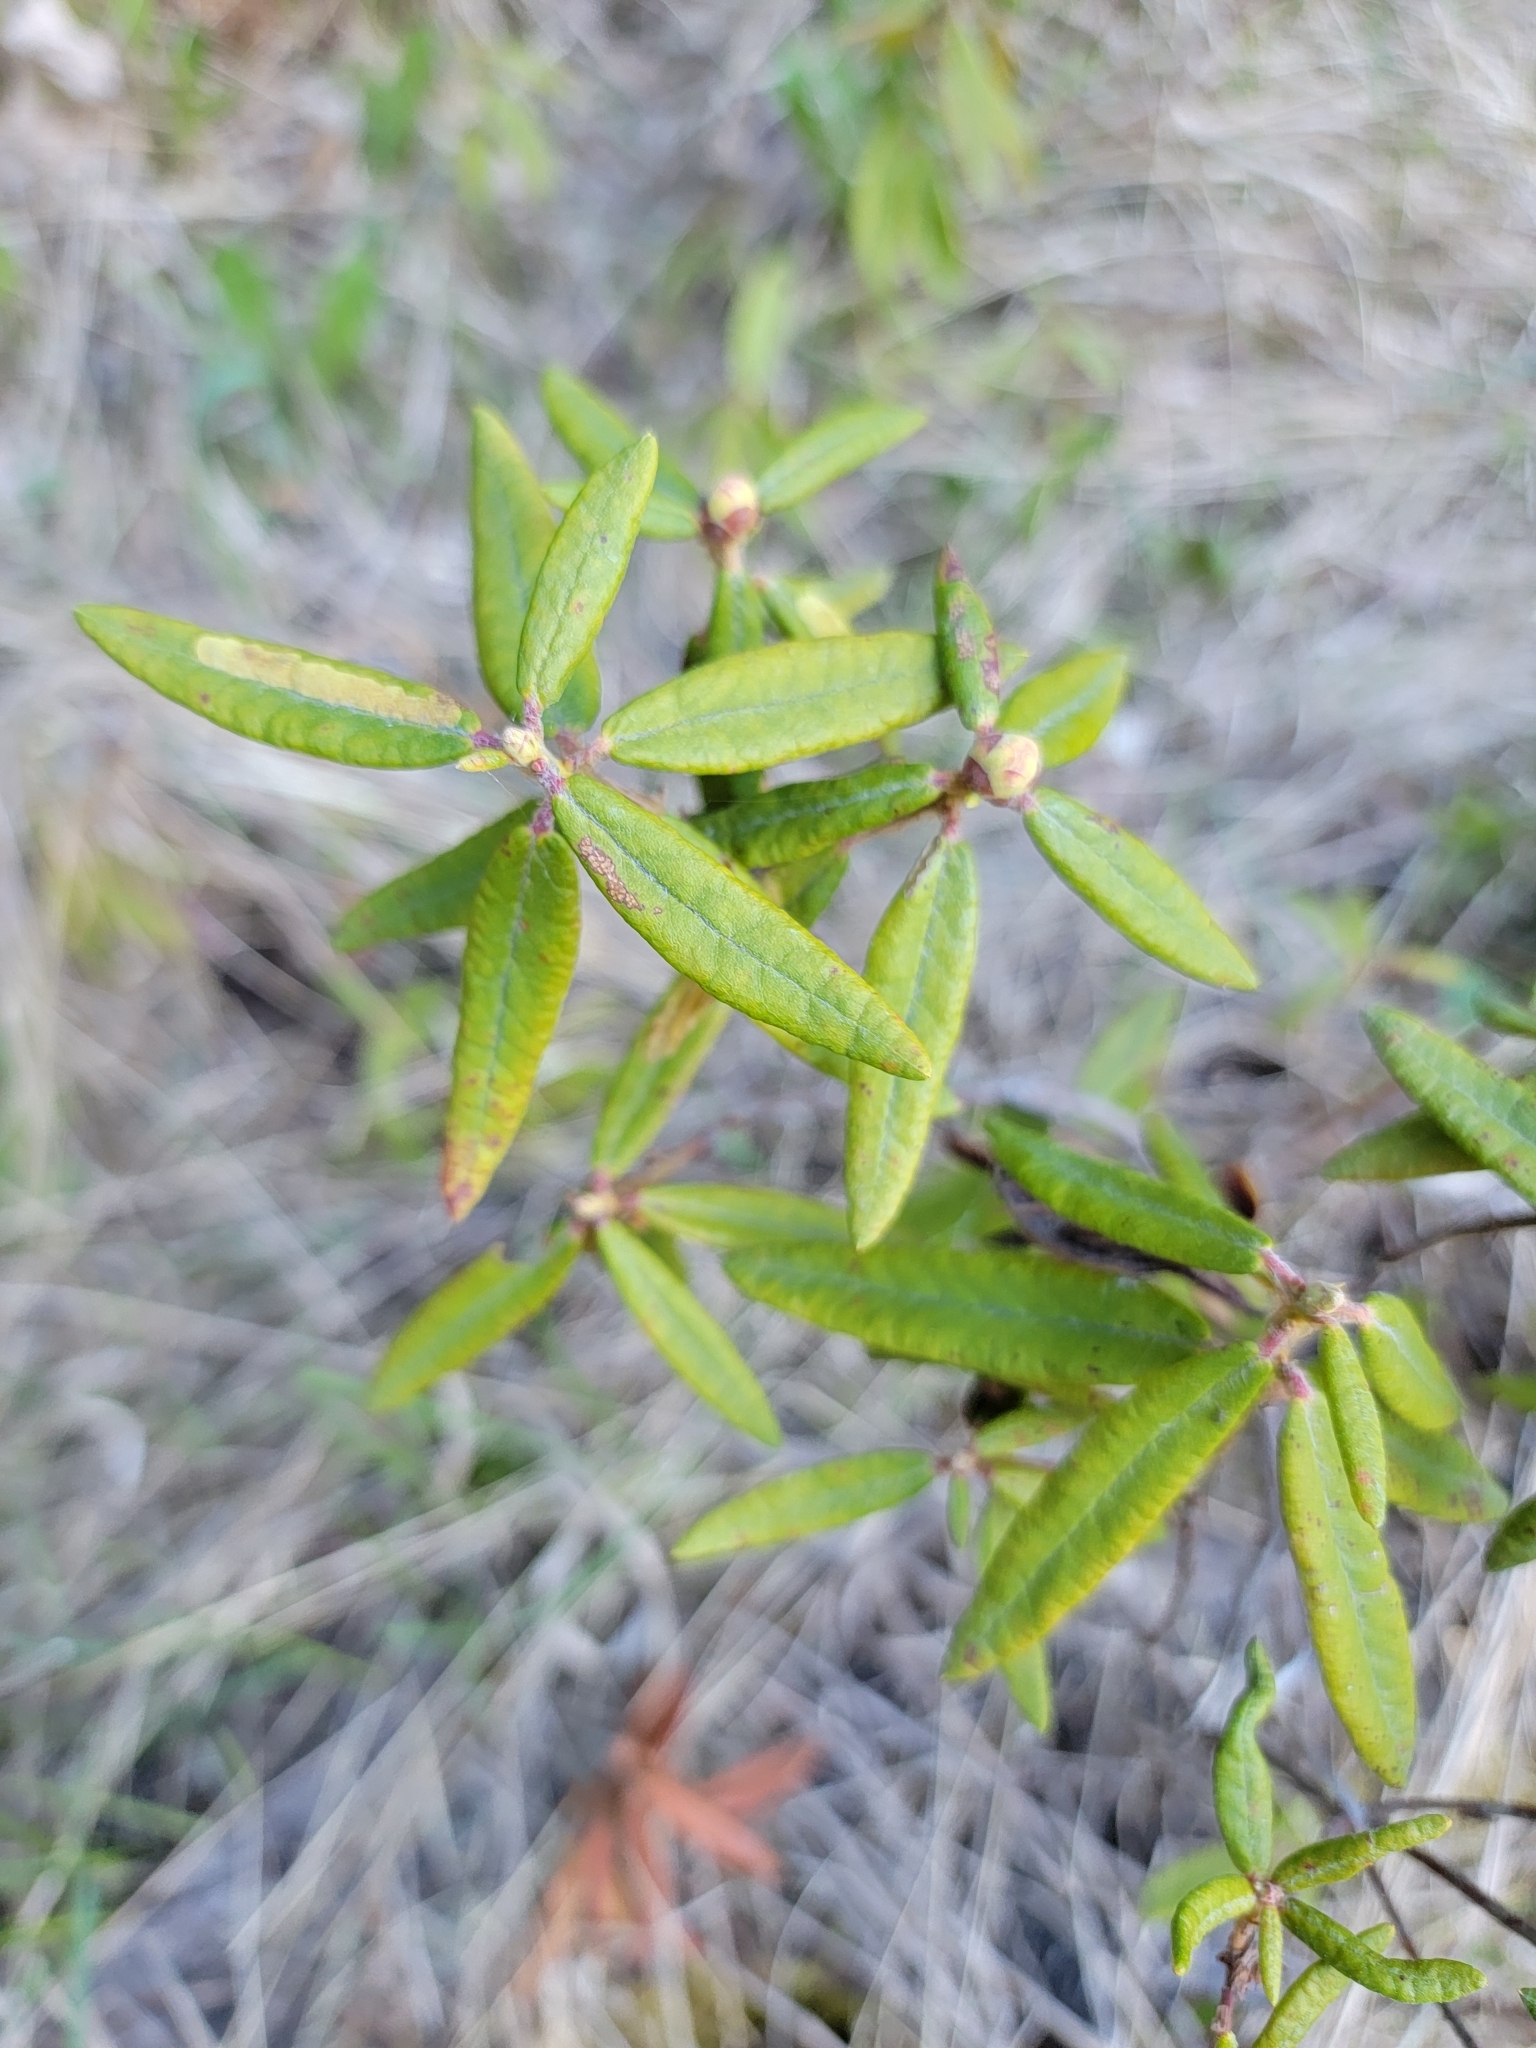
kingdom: Plantae
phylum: Tracheophyta
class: Magnoliopsida
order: Ericales
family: Ericaceae
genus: Rhododendron
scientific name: Rhododendron groenlandicum
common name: Bog labrador tea
